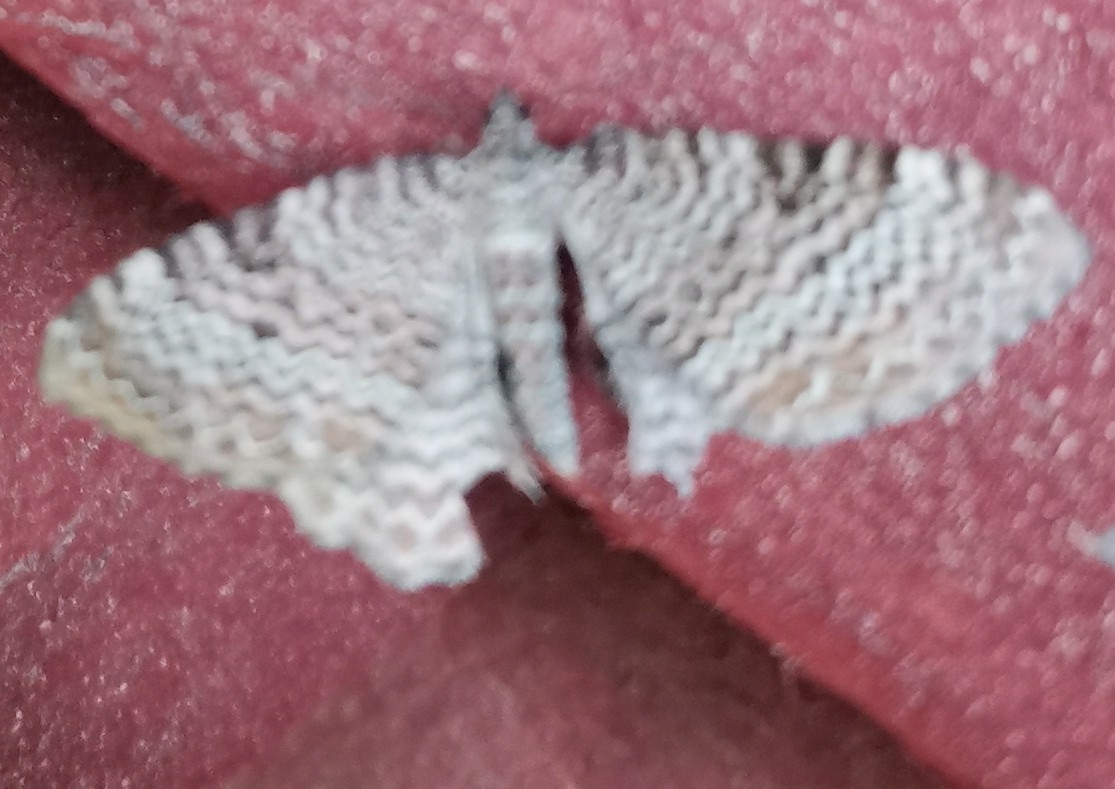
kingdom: Animalia
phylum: Arthropoda
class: Insecta
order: Lepidoptera
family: Geometridae
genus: Rheumaptera
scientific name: Rheumaptera undulata
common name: Scallop shell
